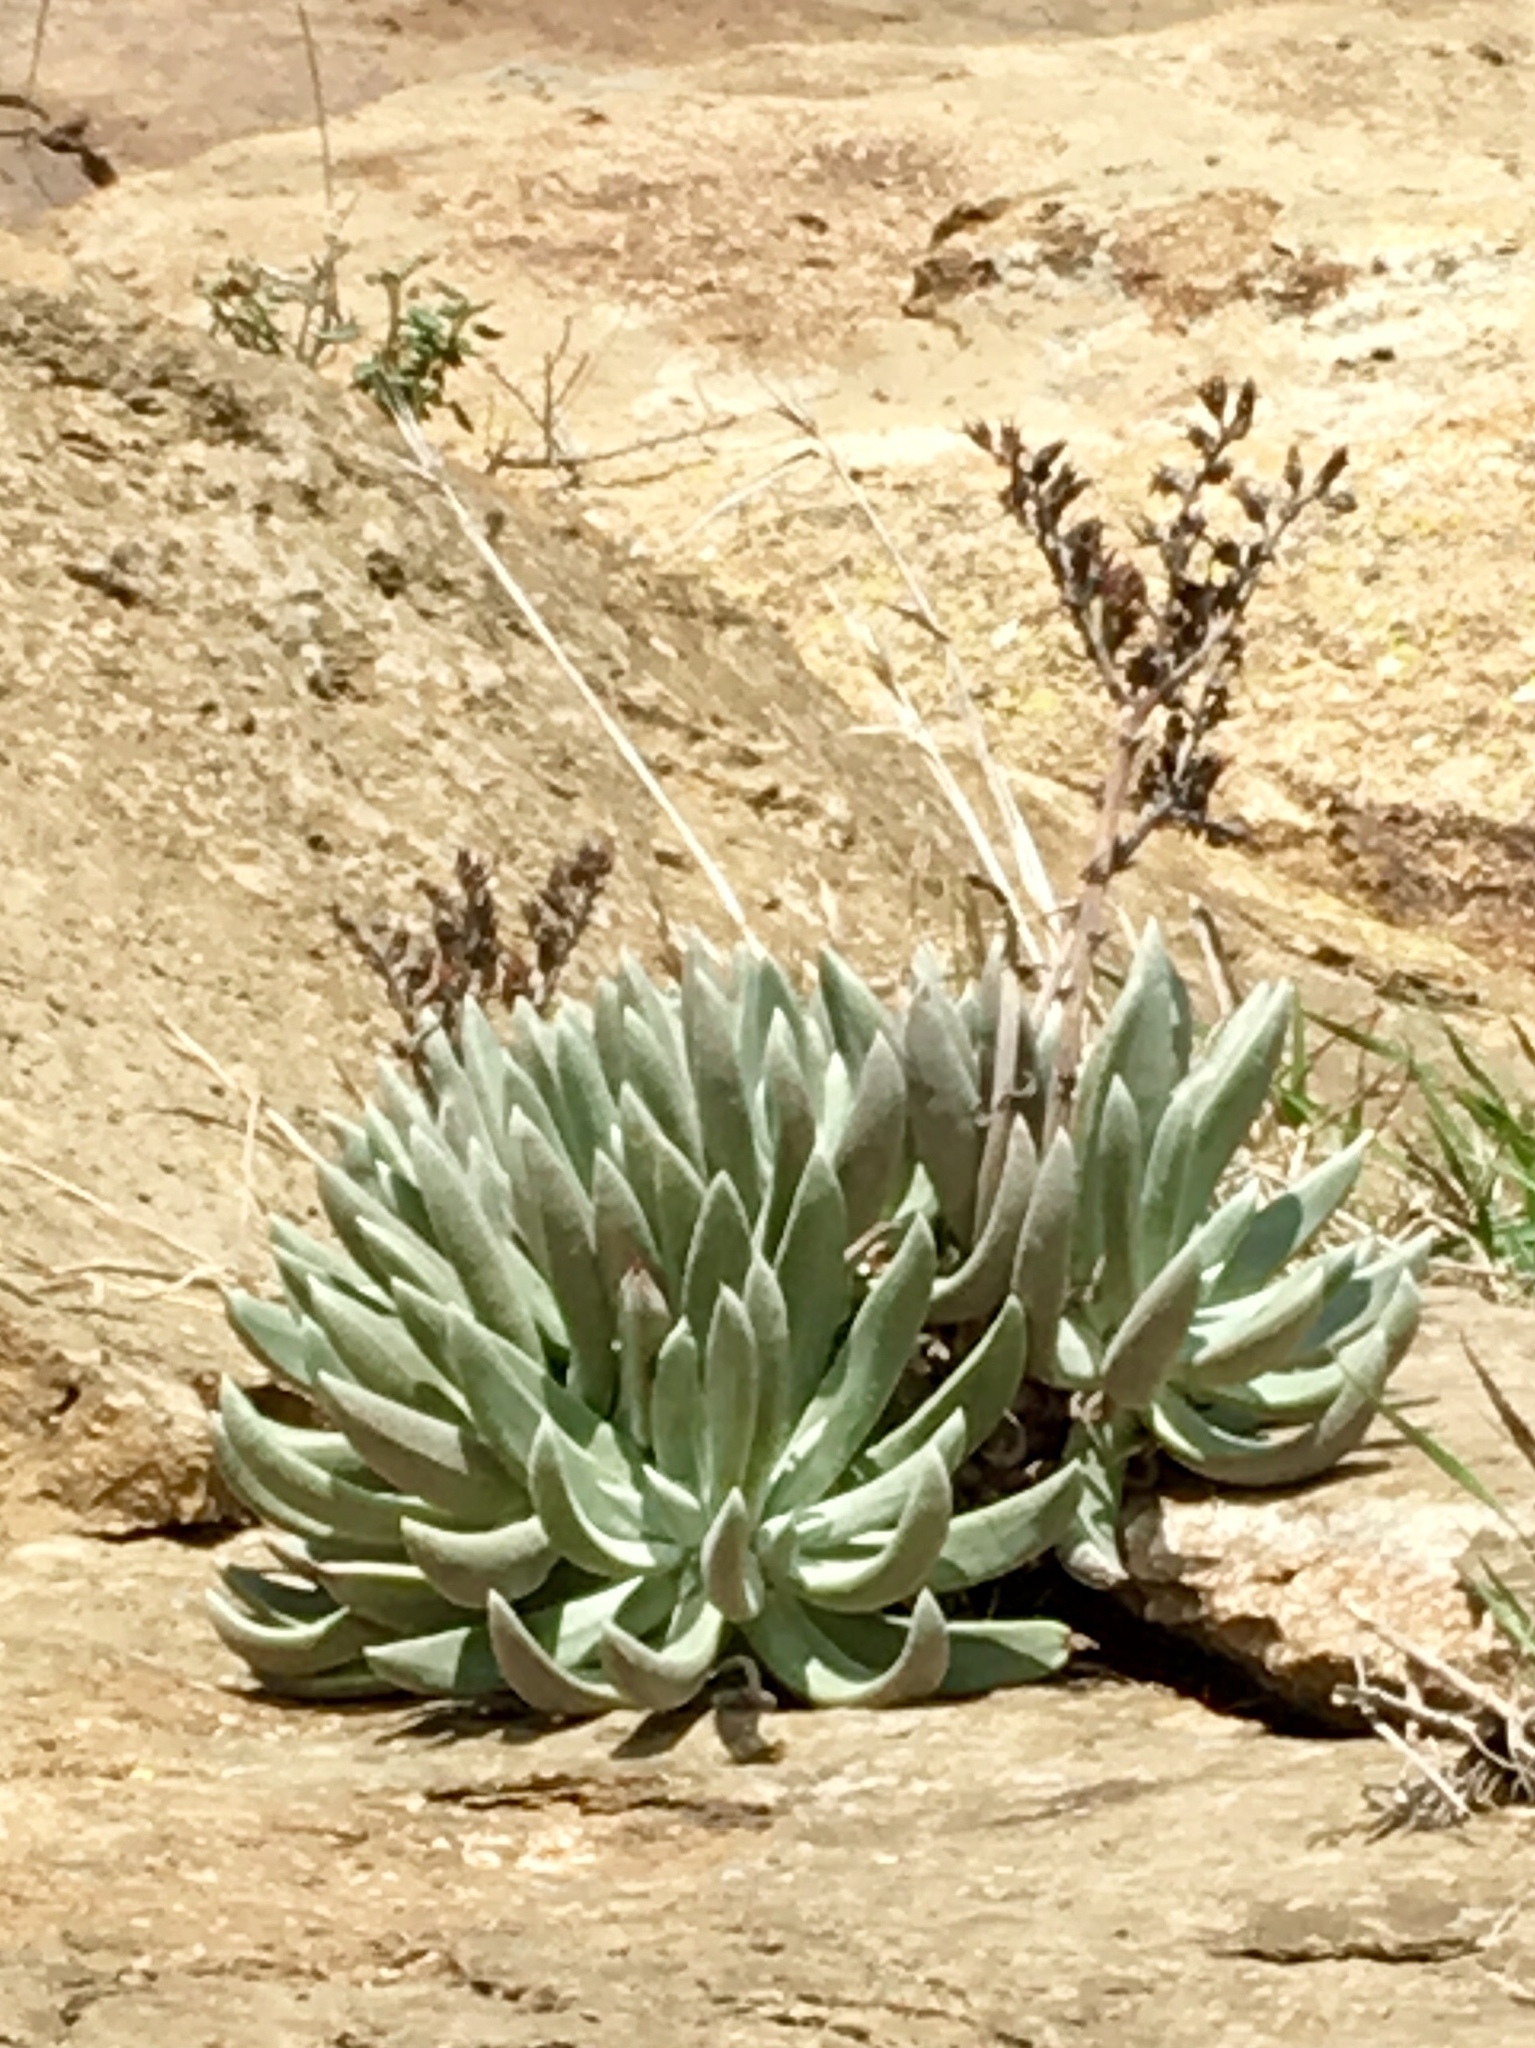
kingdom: Plantae
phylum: Tracheophyta
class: Magnoliopsida
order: Saxifragales
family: Crassulaceae
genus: Dudleya
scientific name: Dudleya caespitosa
